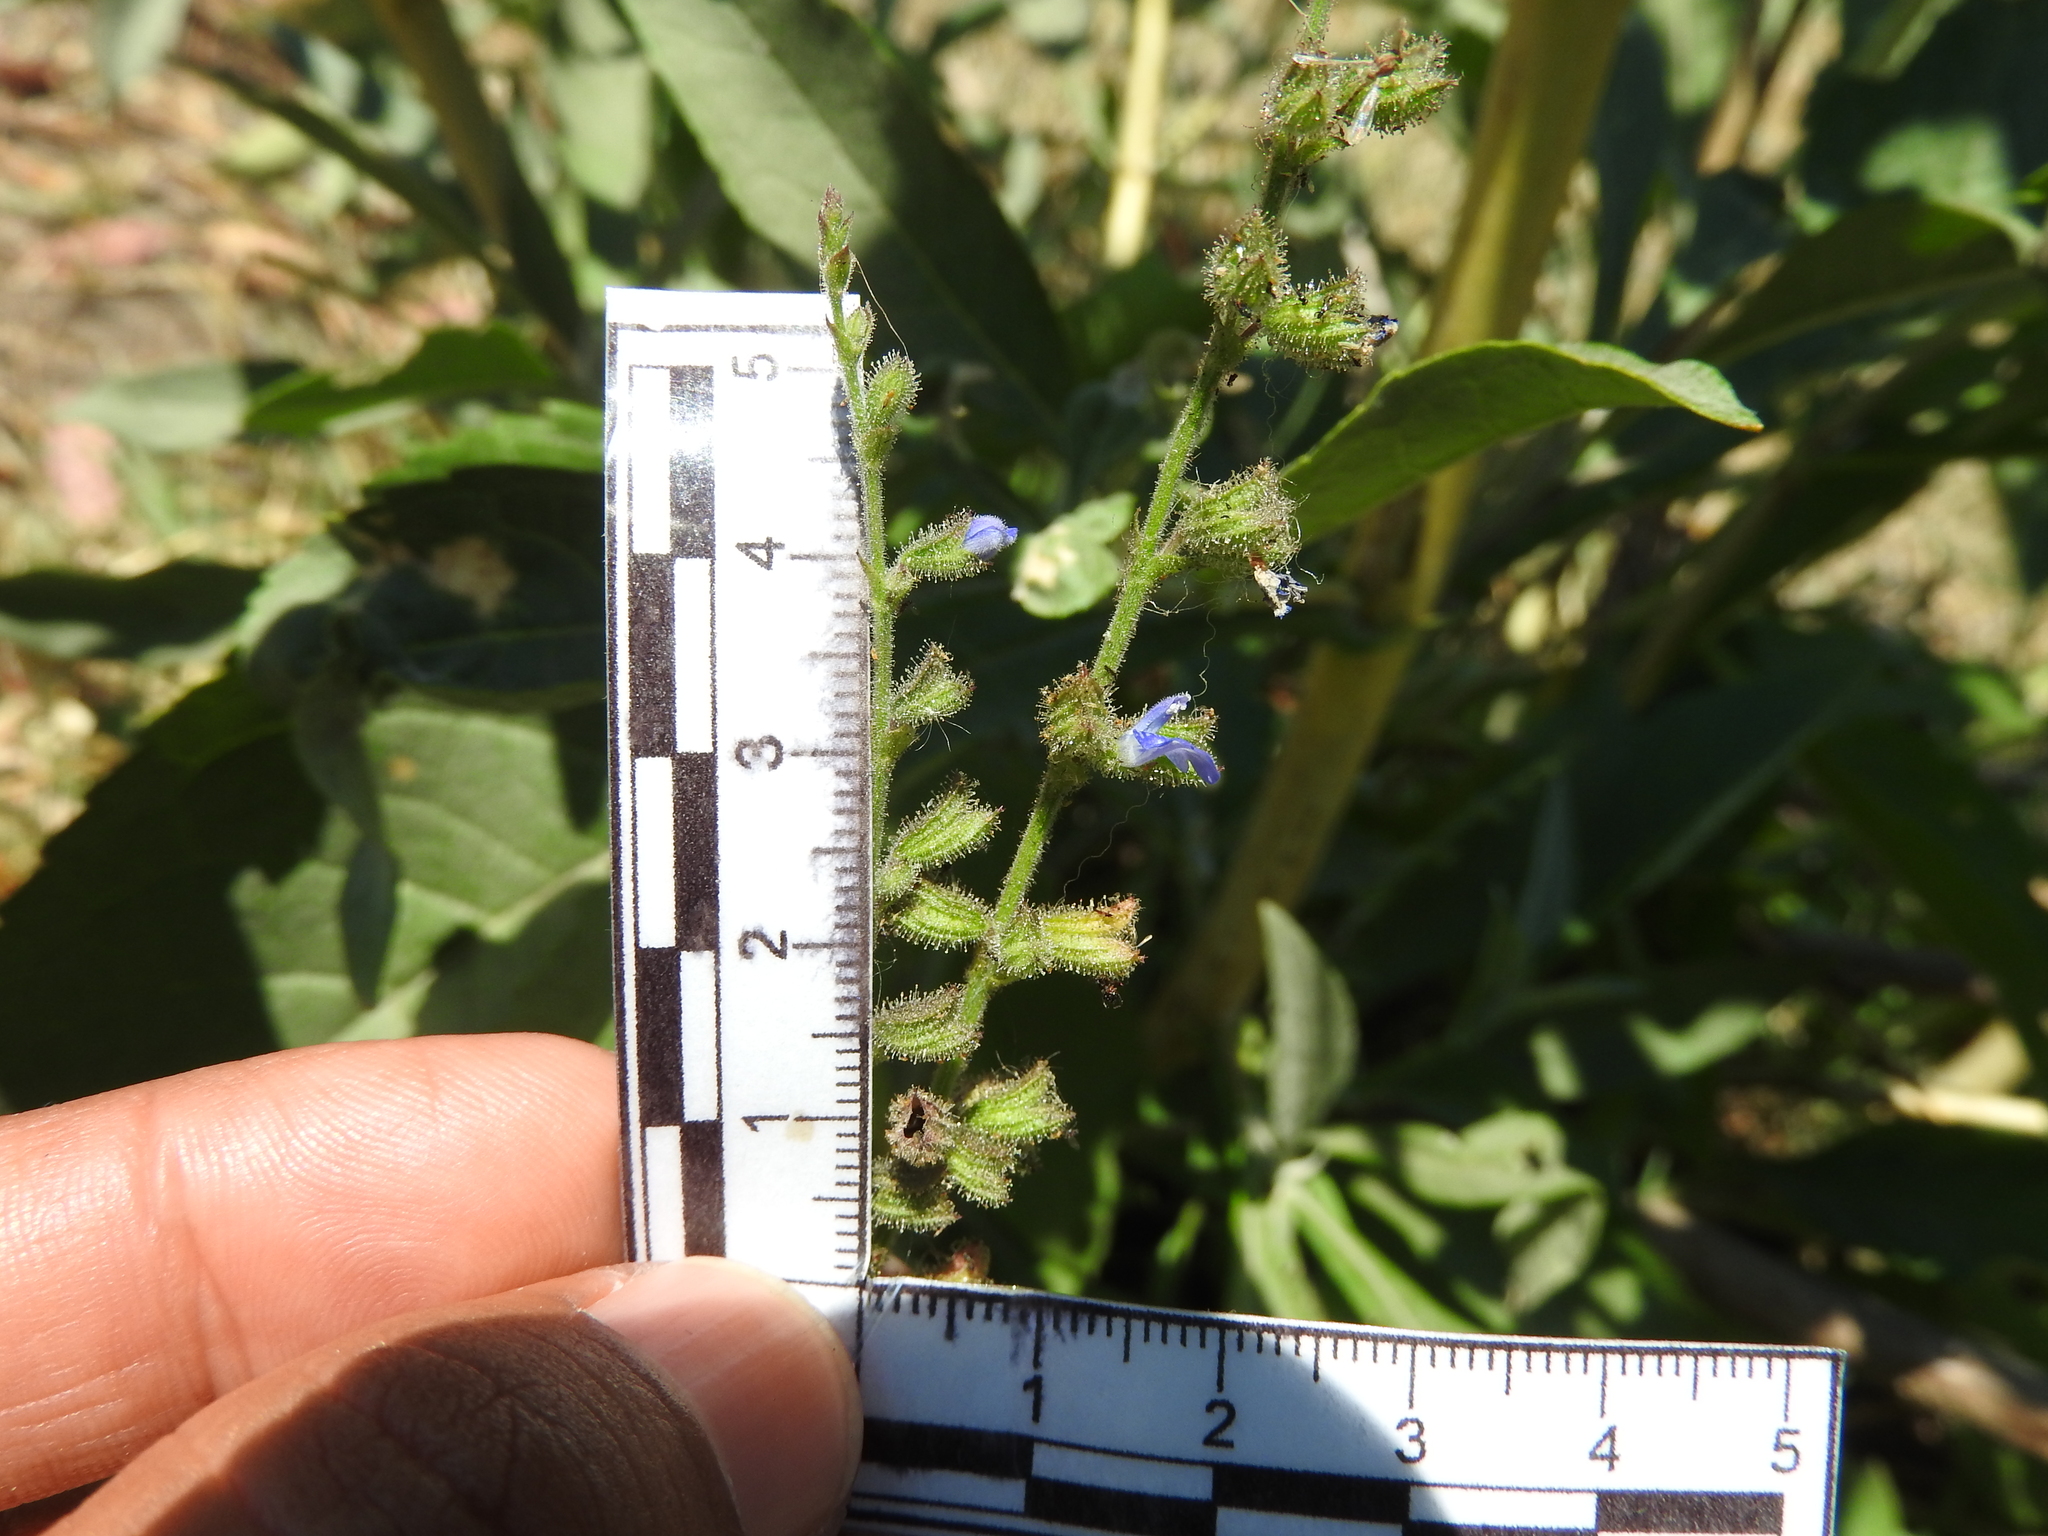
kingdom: Plantae
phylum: Tracheophyta
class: Magnoliopsida
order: Lamiales
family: Lamiaceae
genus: Salvia
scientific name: Salvia misella
